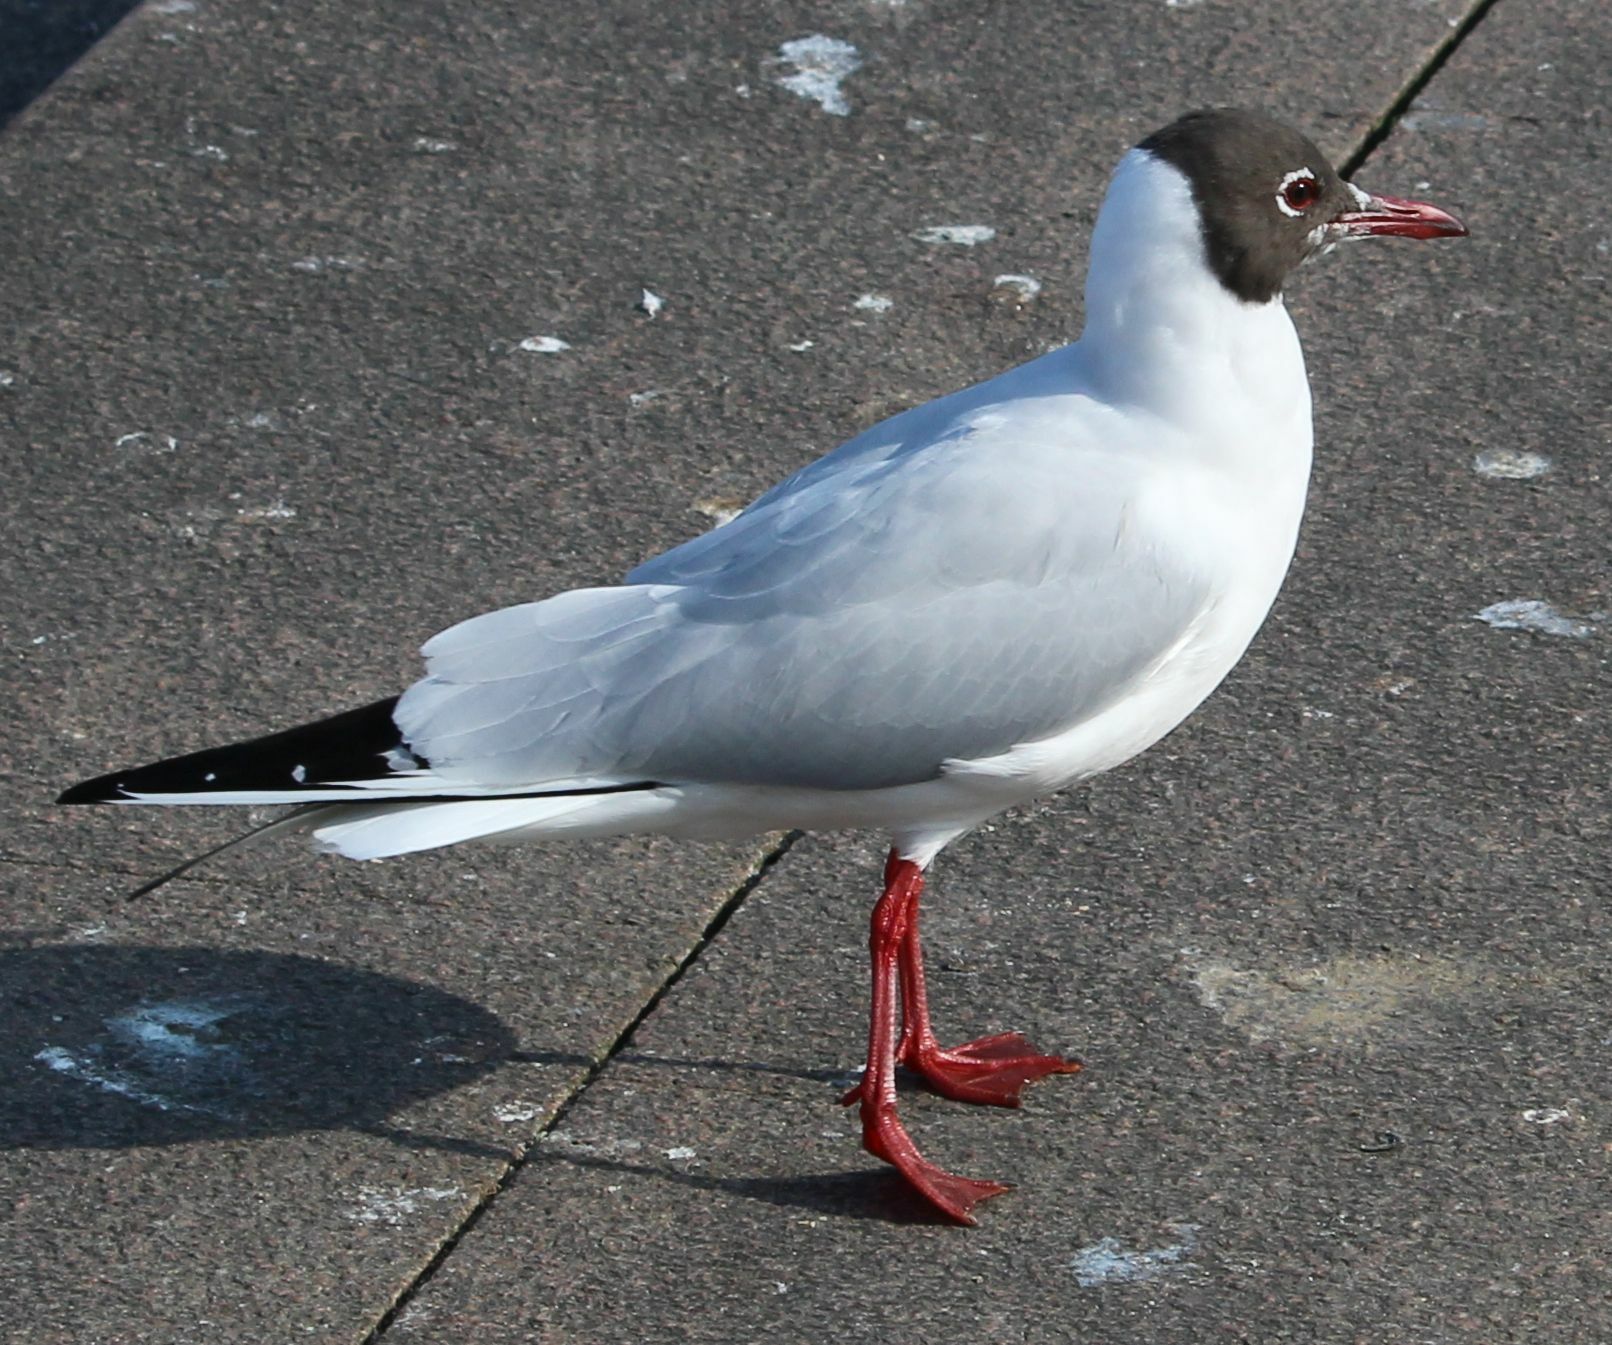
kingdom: Animalia
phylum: Chordata
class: Aves
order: Charadriiformes
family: Laridae
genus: Chroicocephalus
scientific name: Chroicocephalus ridibundus
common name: Black-headed gull
